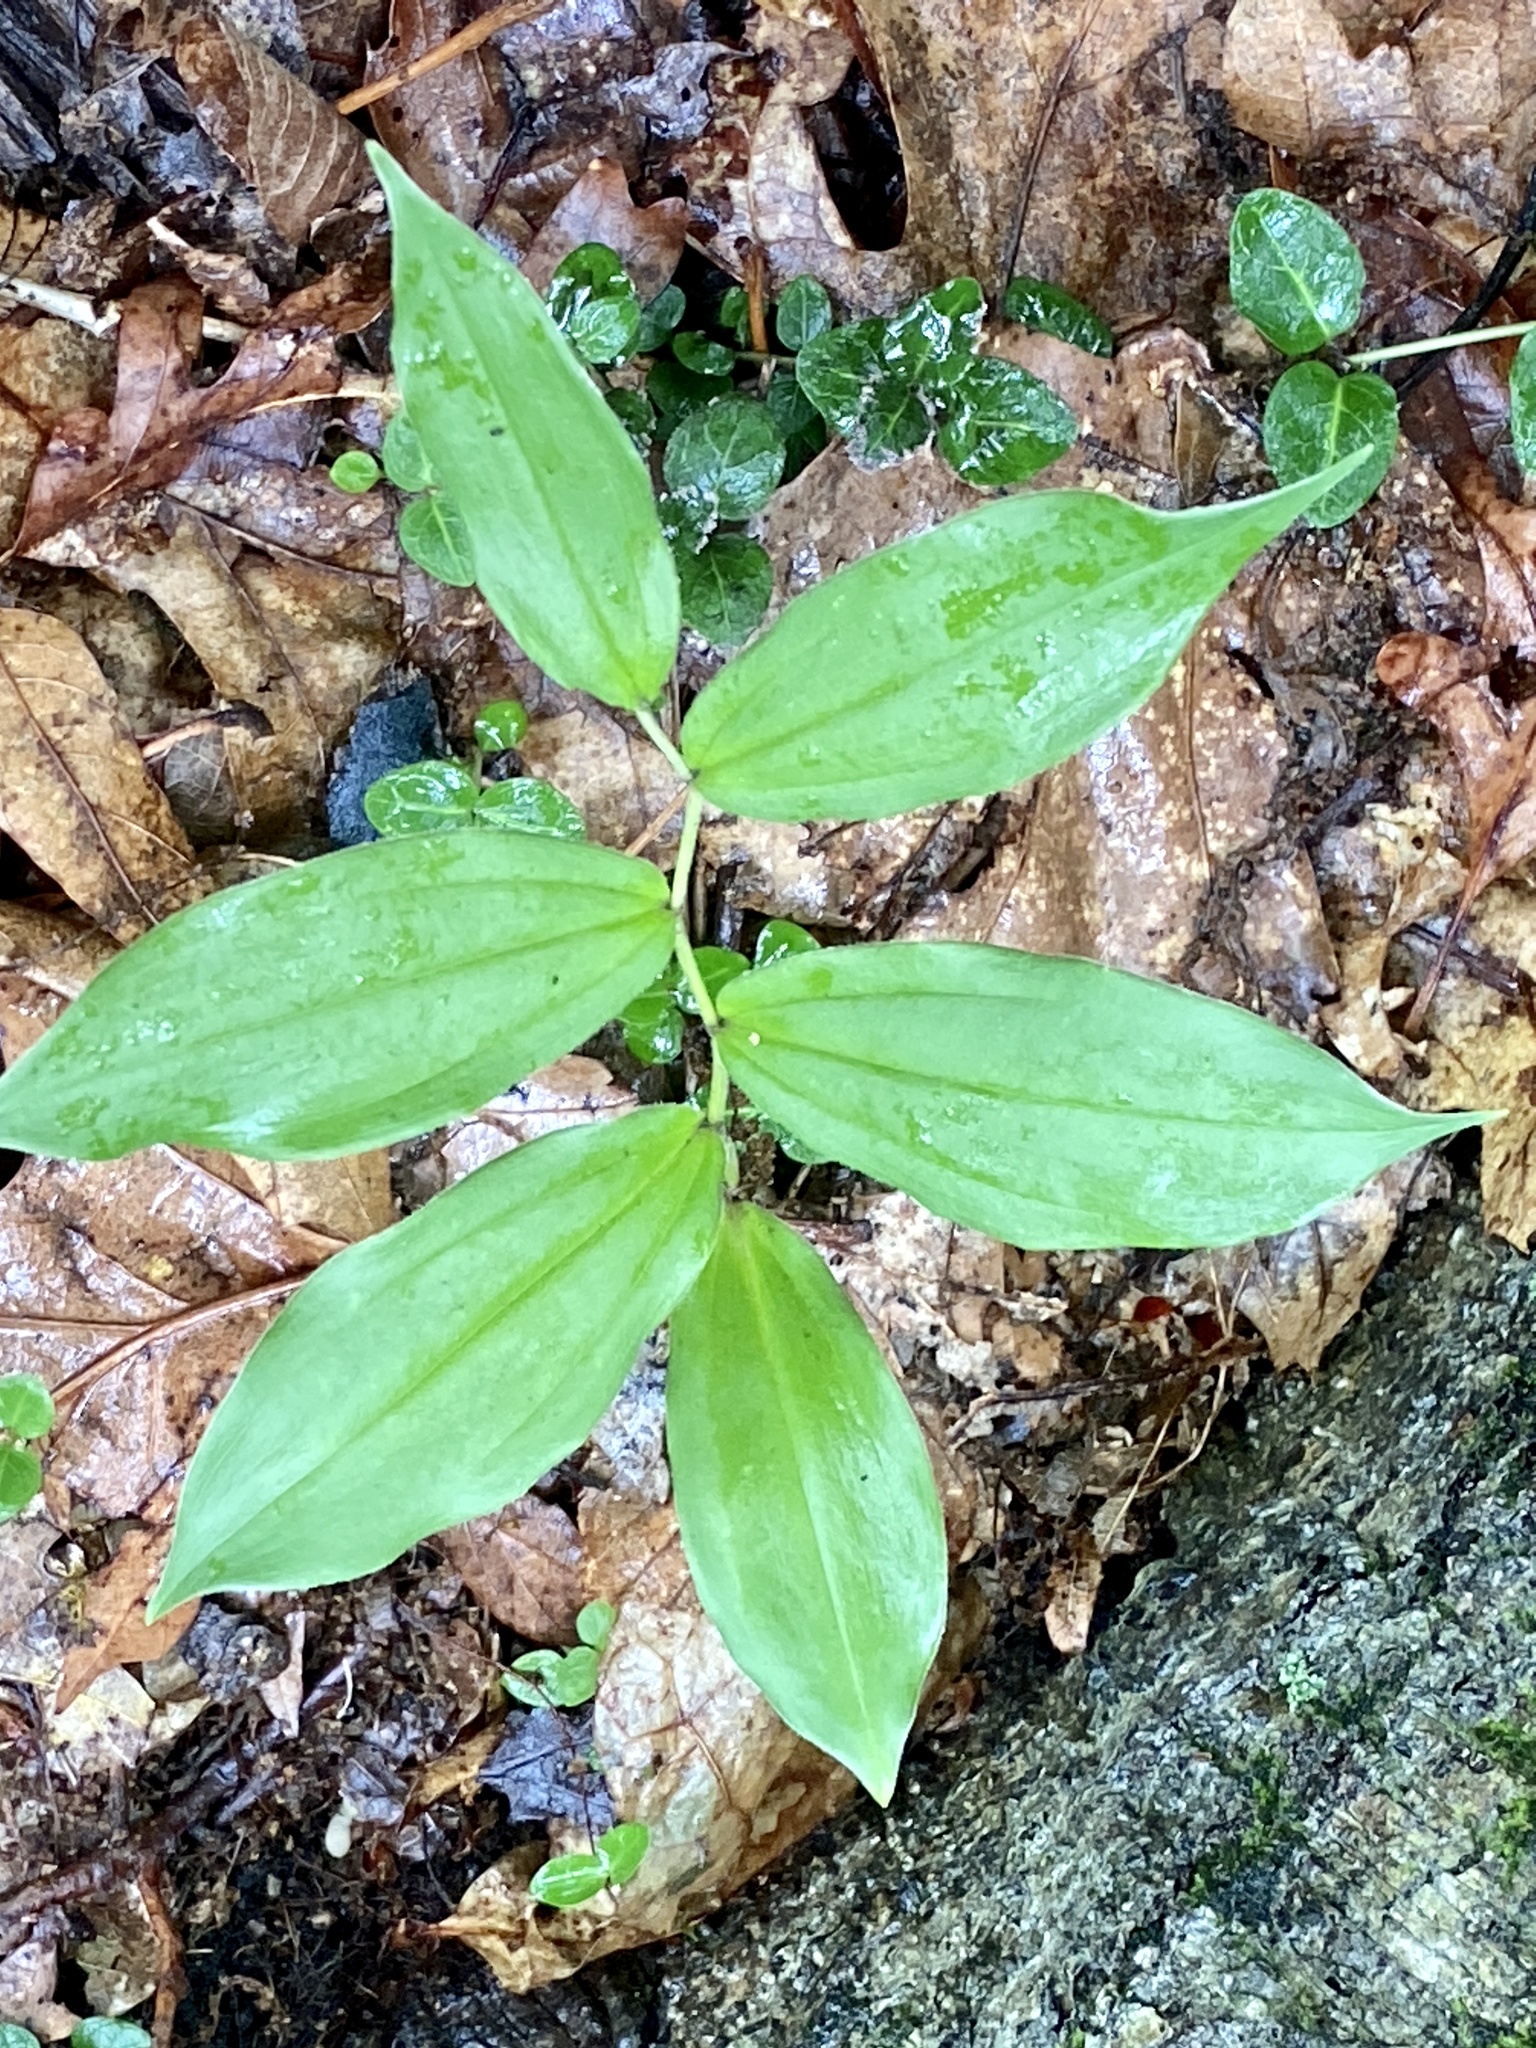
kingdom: Plantae
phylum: Tracheophyta
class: Liliopsida
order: Asparagales
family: Asparagaceae
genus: Maianthemum
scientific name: Maianthemum racemosum
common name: False spikenard
